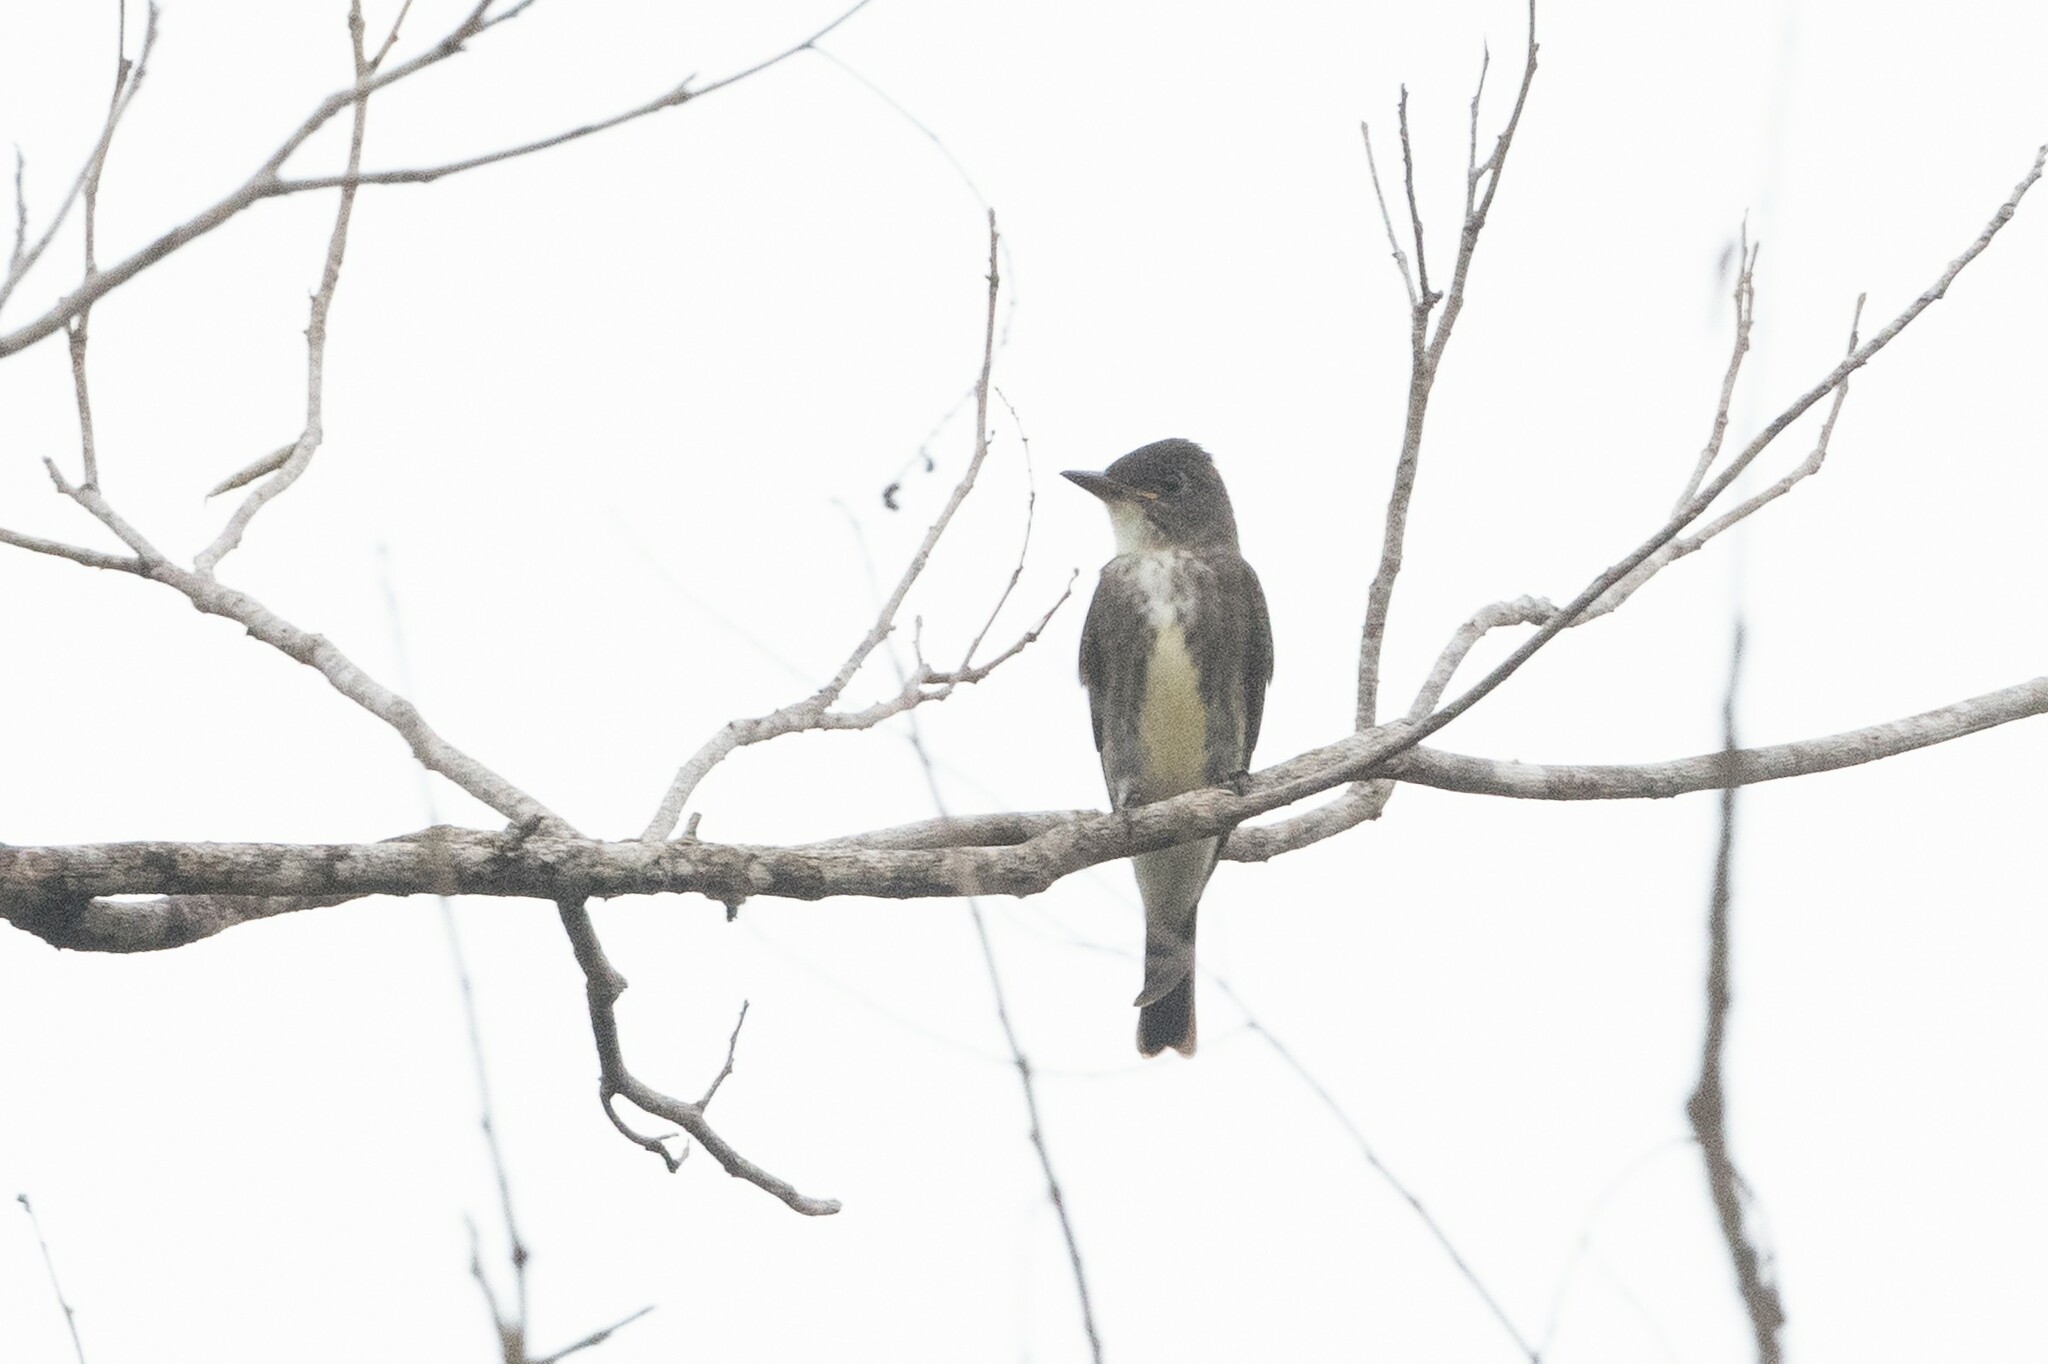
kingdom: Animalia
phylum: Chordata
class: Aves
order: Passeriformes
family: Tyrannidae
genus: Contopus
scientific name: Contopus cooperi
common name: Olive-sided flycatcher
